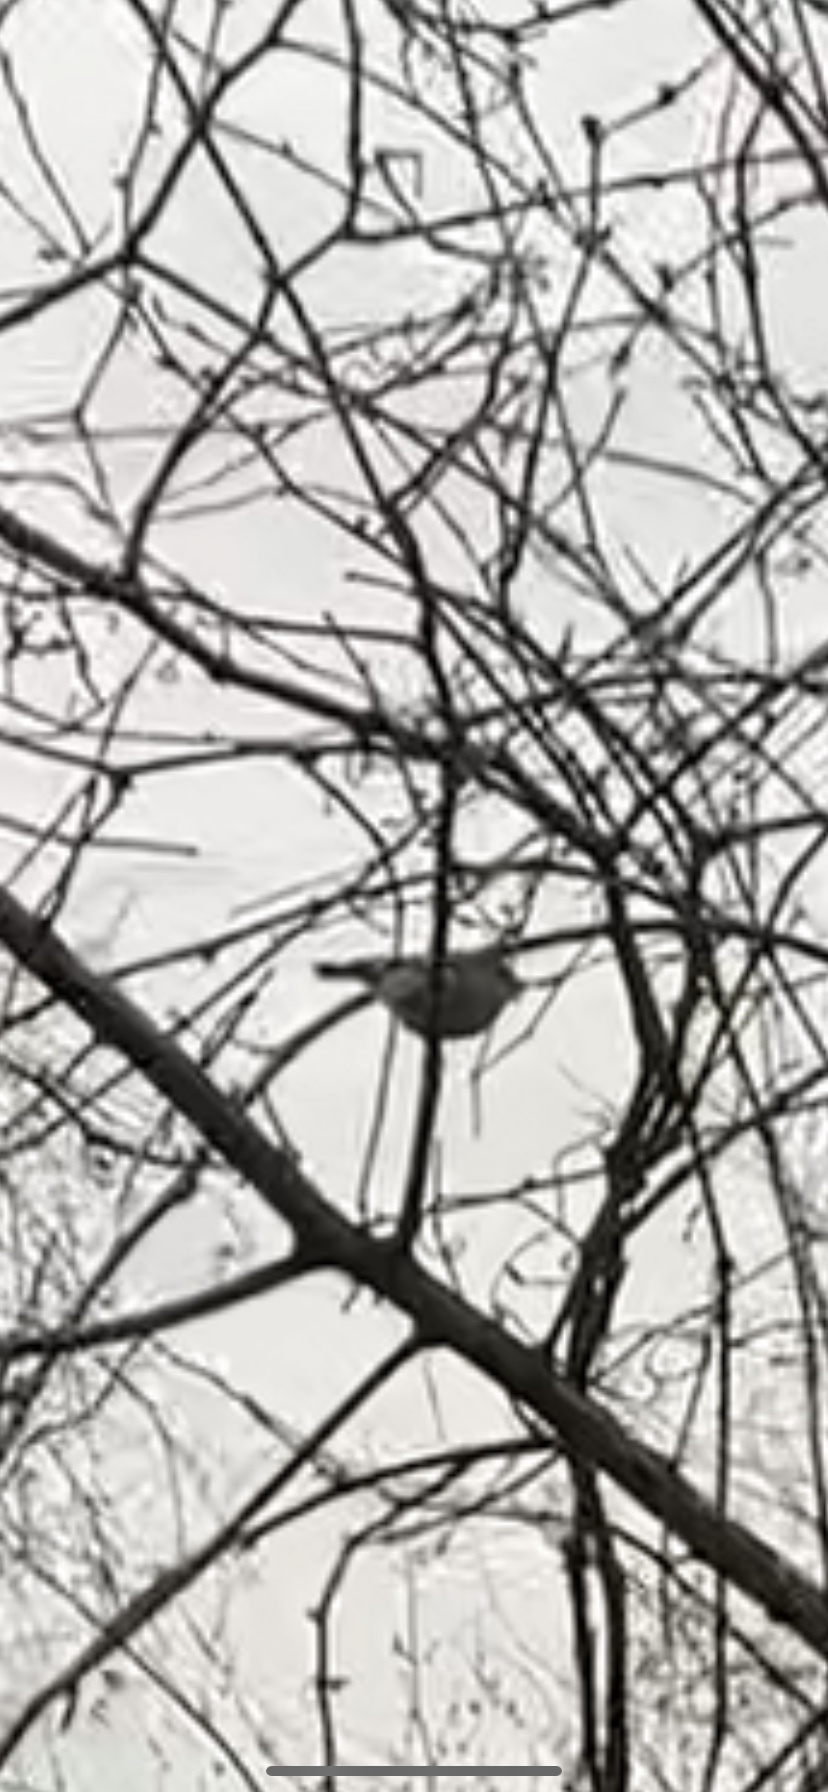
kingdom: Animalia
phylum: Chordata
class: Aves
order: Passeriformes
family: Regulidae
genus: Regulus
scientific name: Regulus satrapa
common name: Golden-crowned kinglet
